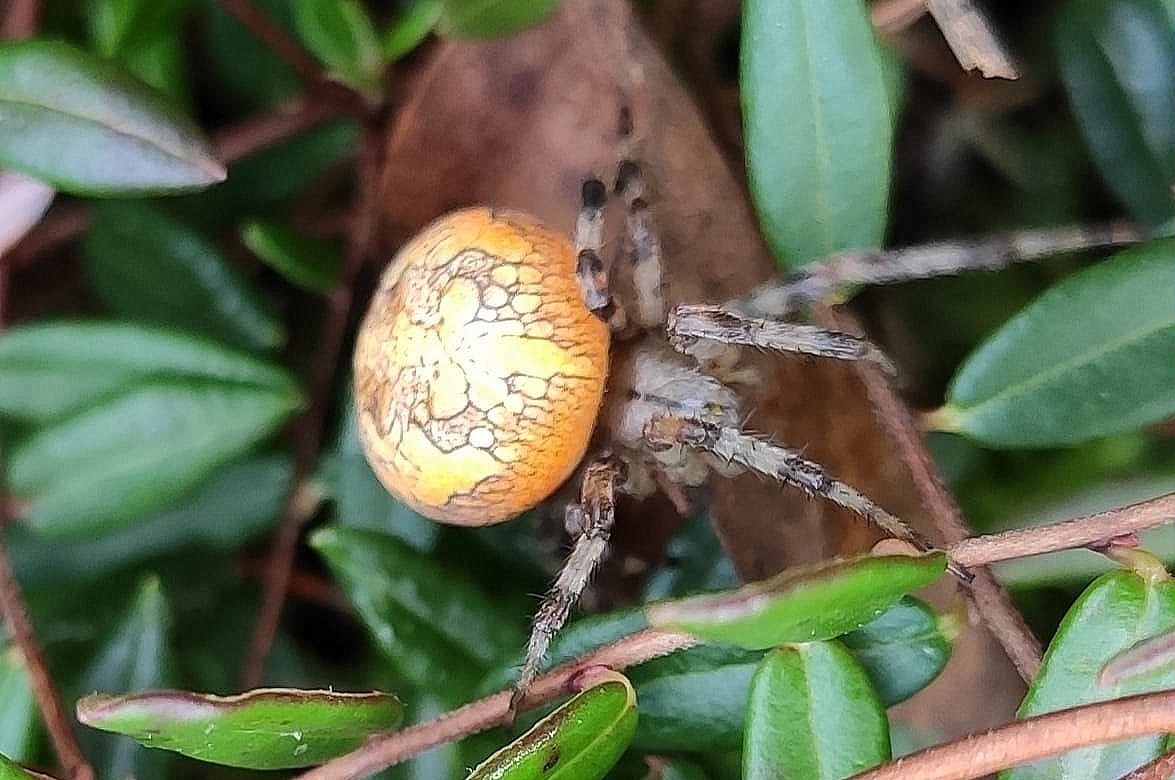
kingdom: Animalia
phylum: Arthropoda
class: Arachnida
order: Araneae
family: Araneidae
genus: Araneus
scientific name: Araneus marmoreus
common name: Marbled orbweaver
